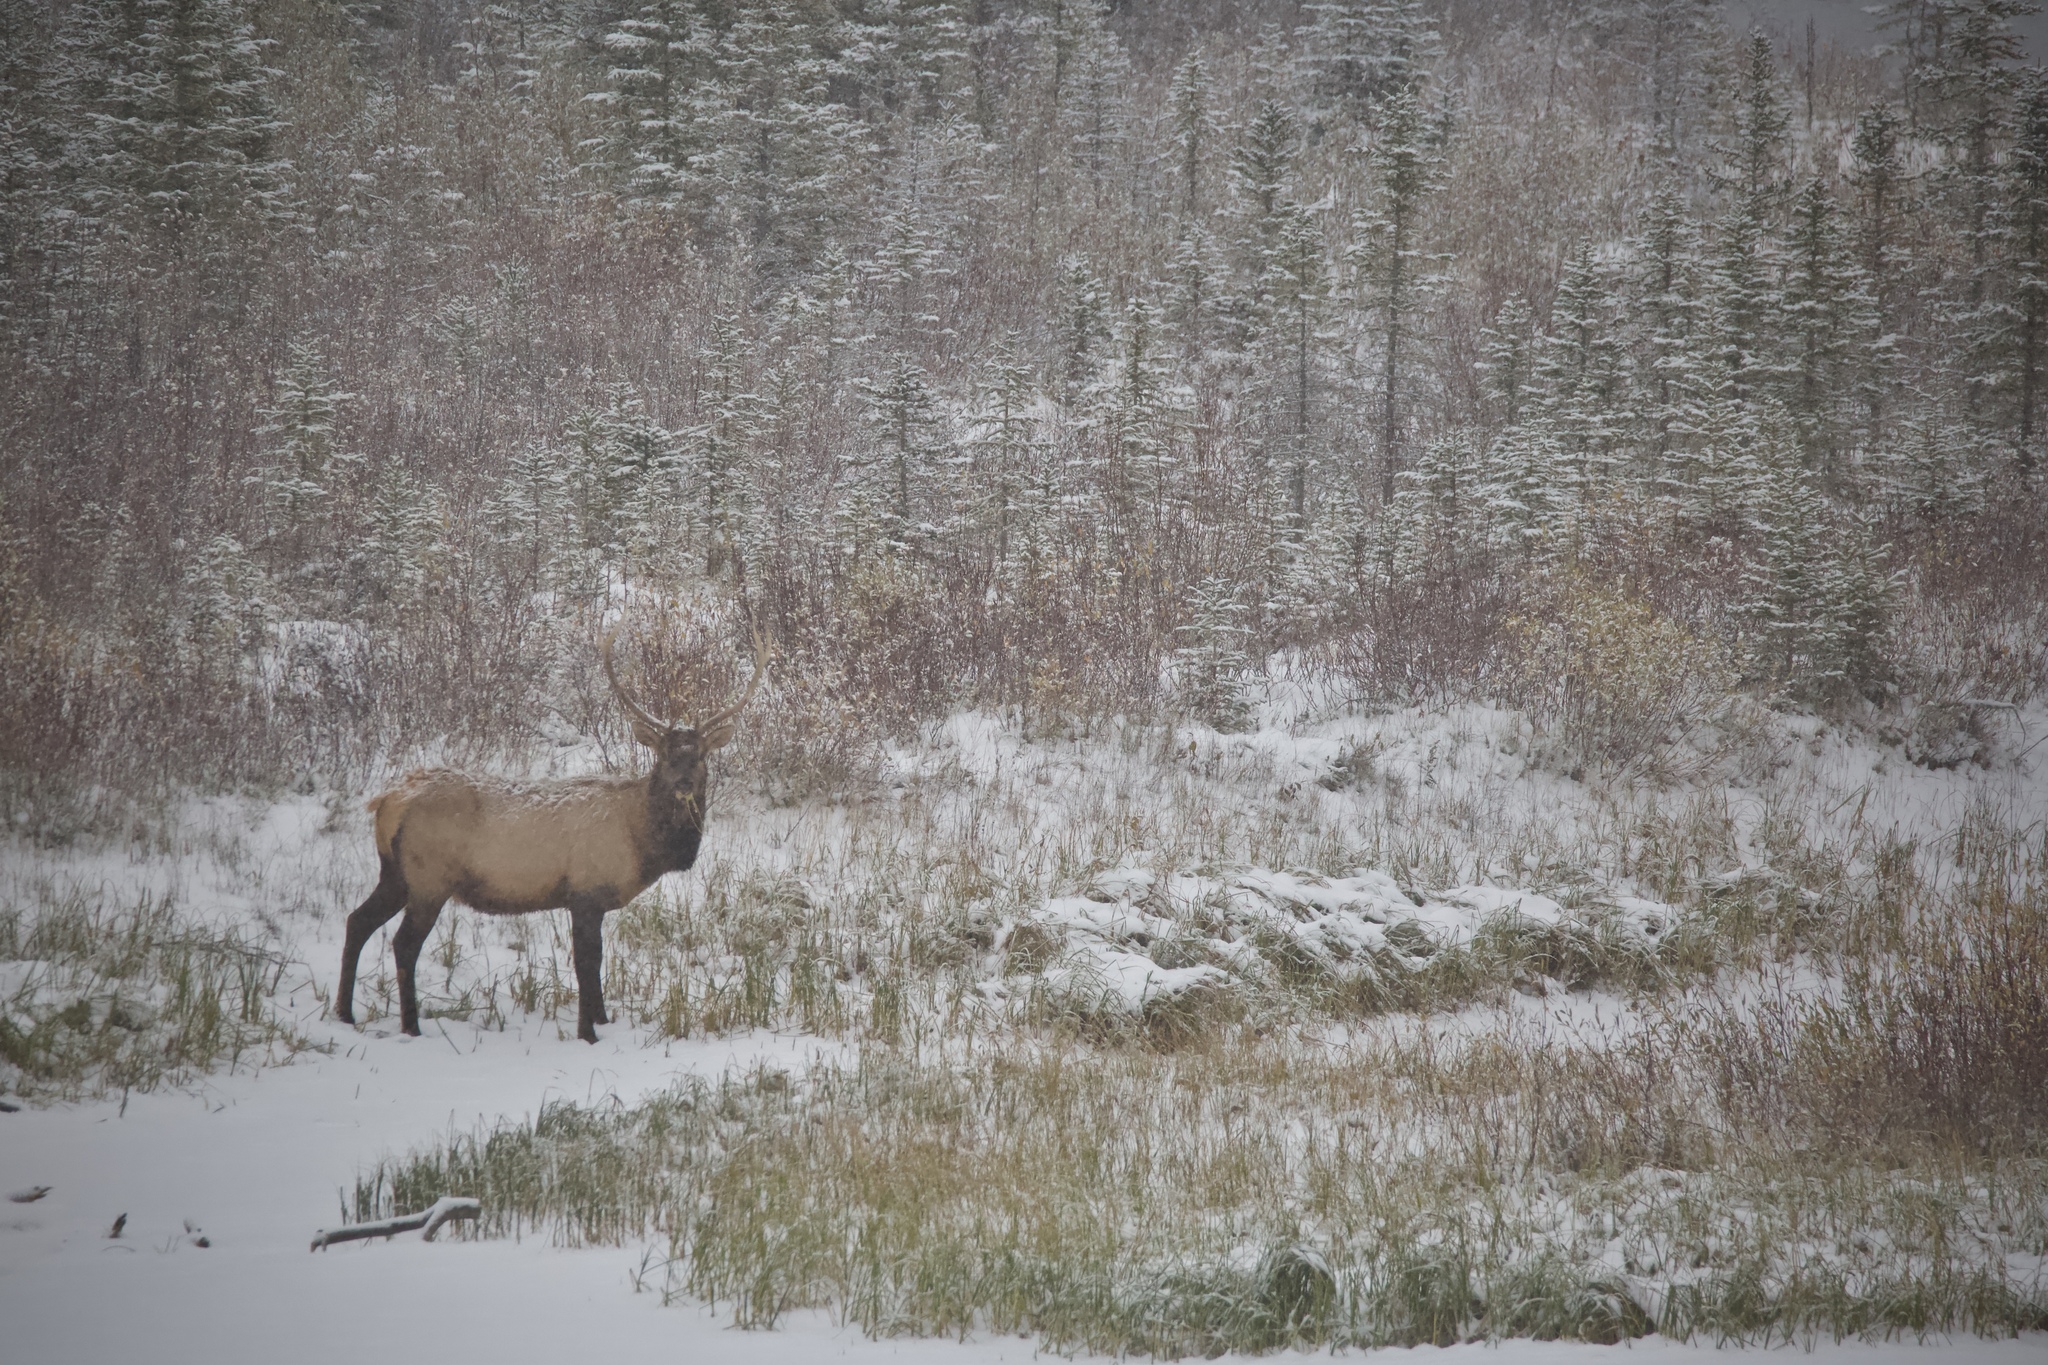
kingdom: Animalia
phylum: Chordata
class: Mammalia
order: Artiodactyla
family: Cervidae
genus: Cervus
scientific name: Cervus elaphus
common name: Red deer
